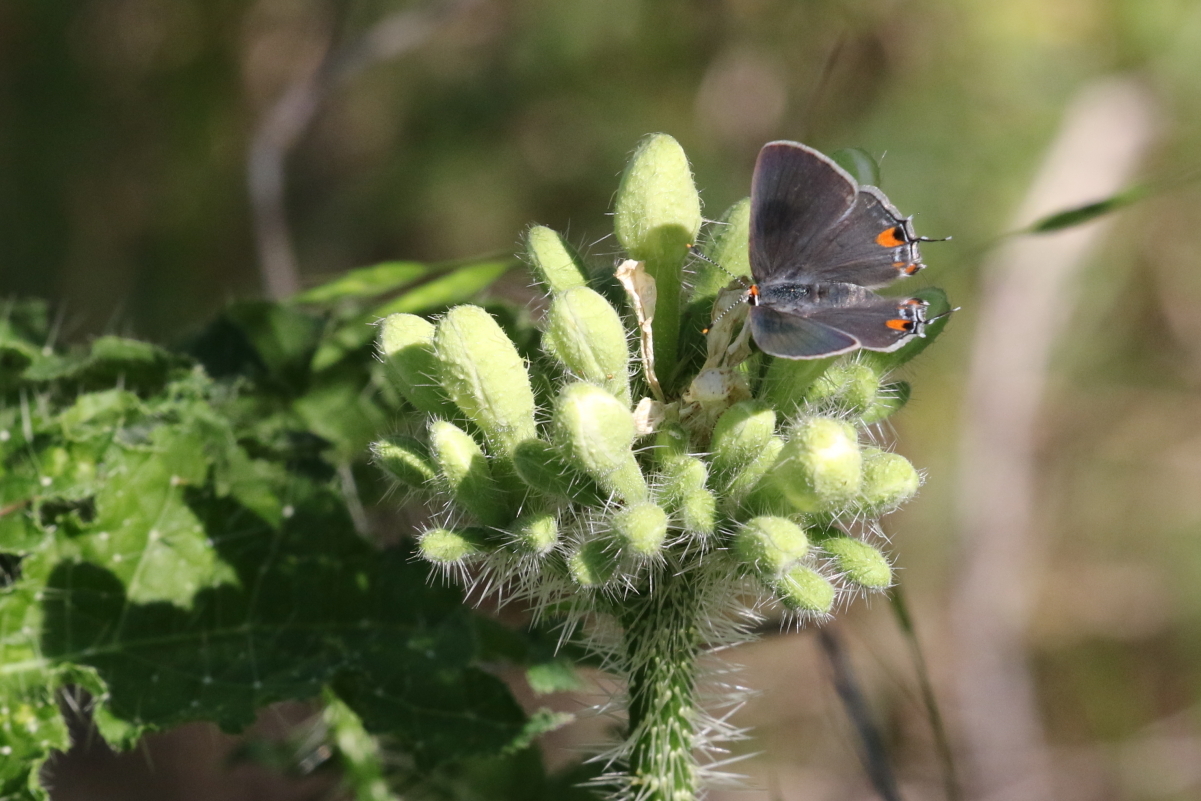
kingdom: Animalia
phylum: Arthropoda
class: Insecta
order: Lepidoptera
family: Lycaenidae
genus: Strymon
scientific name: Strymon melinus
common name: Gray hairstreak
